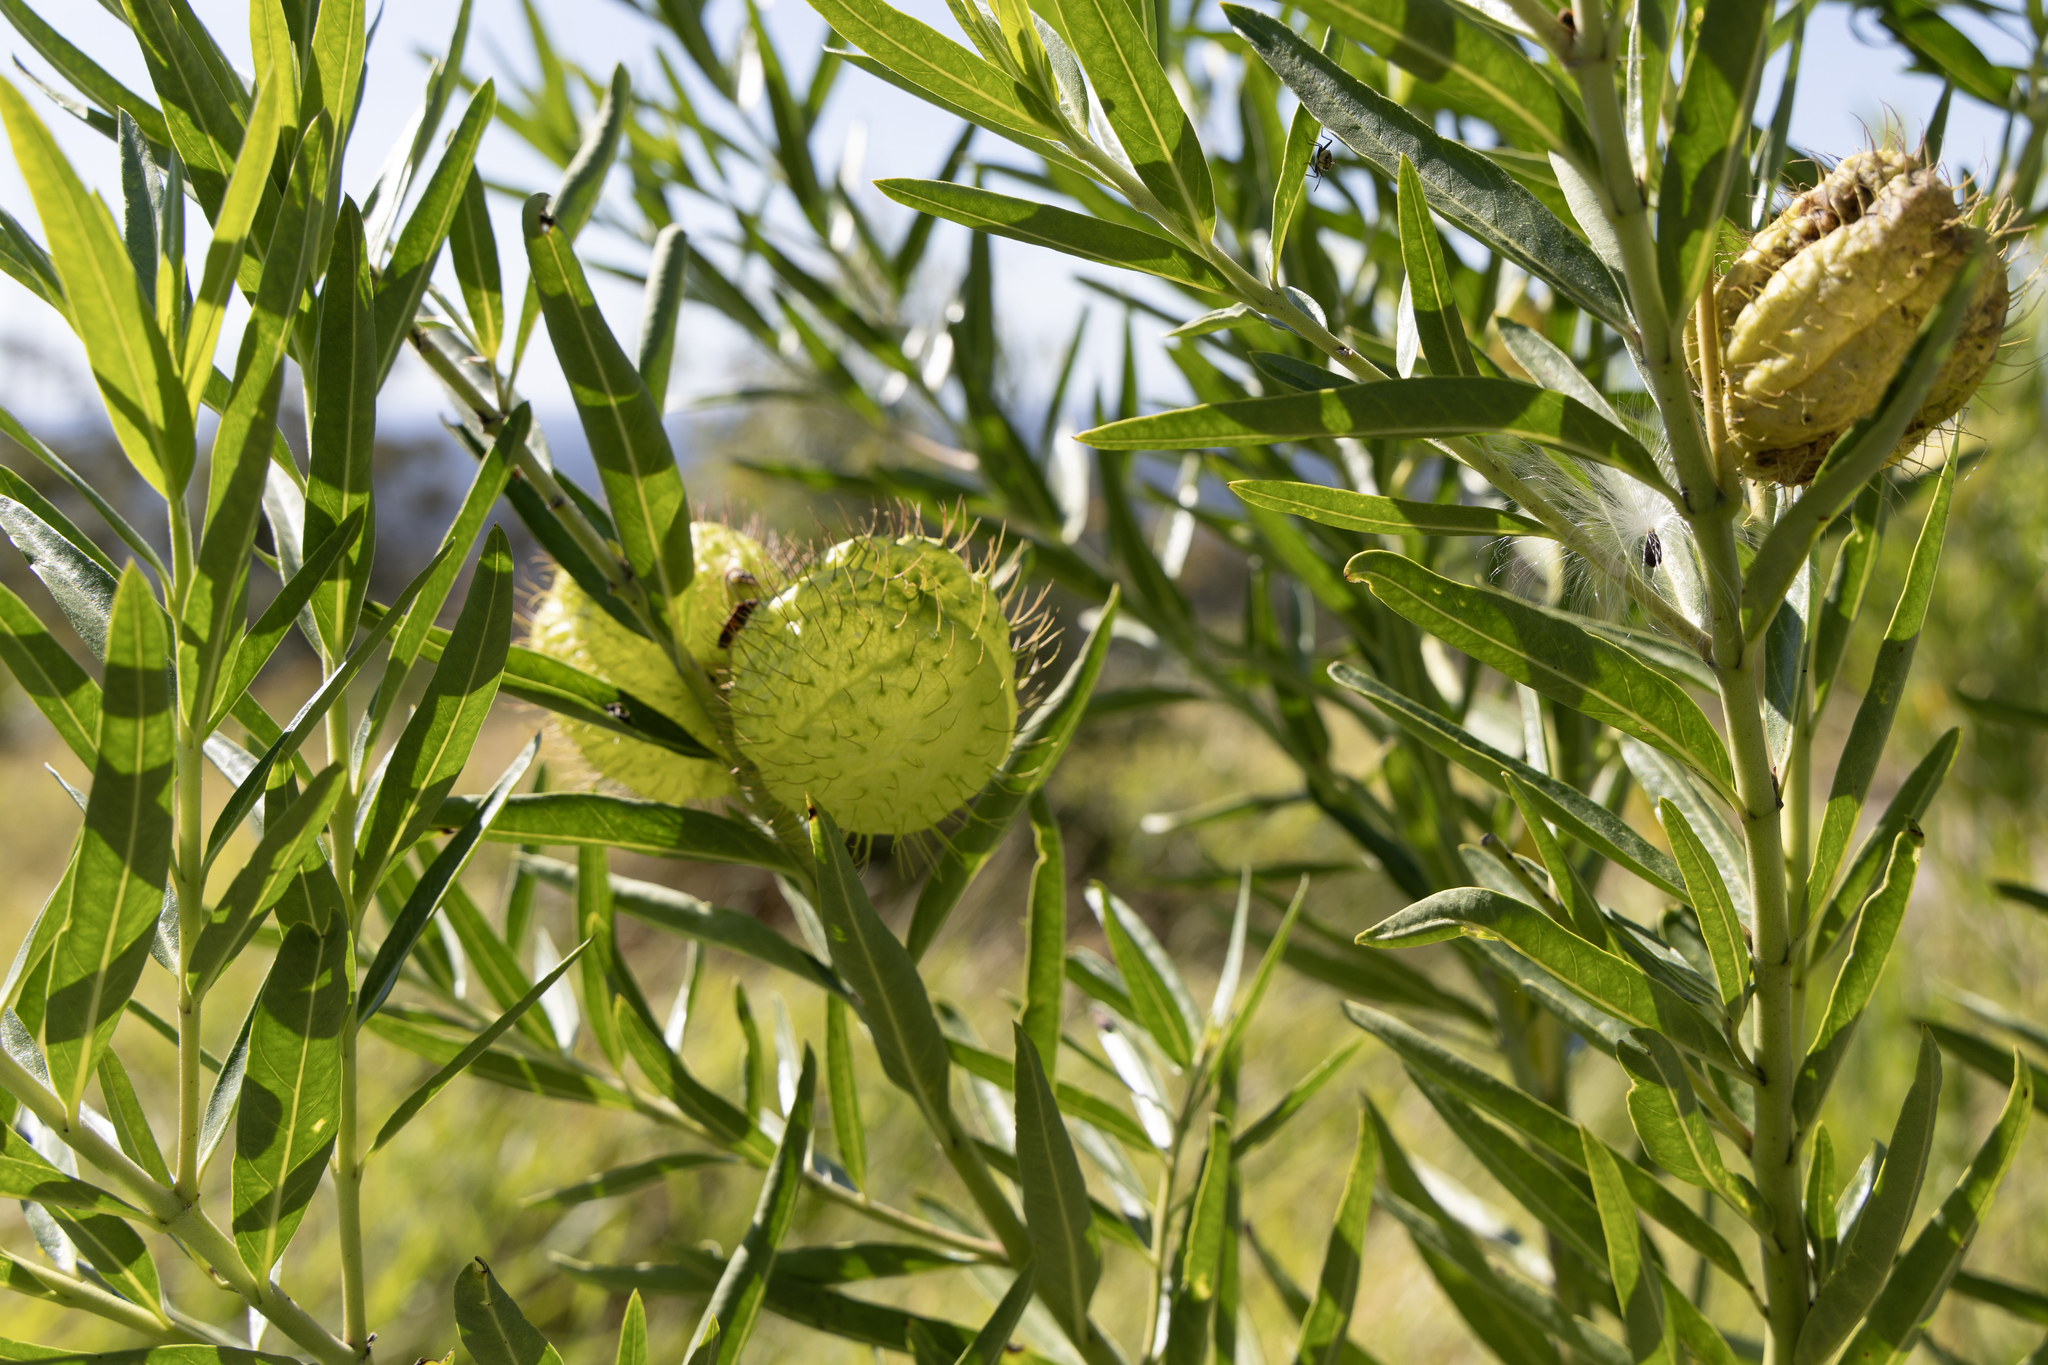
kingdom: Plantae
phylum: Tracheophyta
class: Magnoliopsida
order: Gentianales
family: Apocynaceae
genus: Gomphocarpus
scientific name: Gomphocarpus physocarpus
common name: Balloon cotton bush
